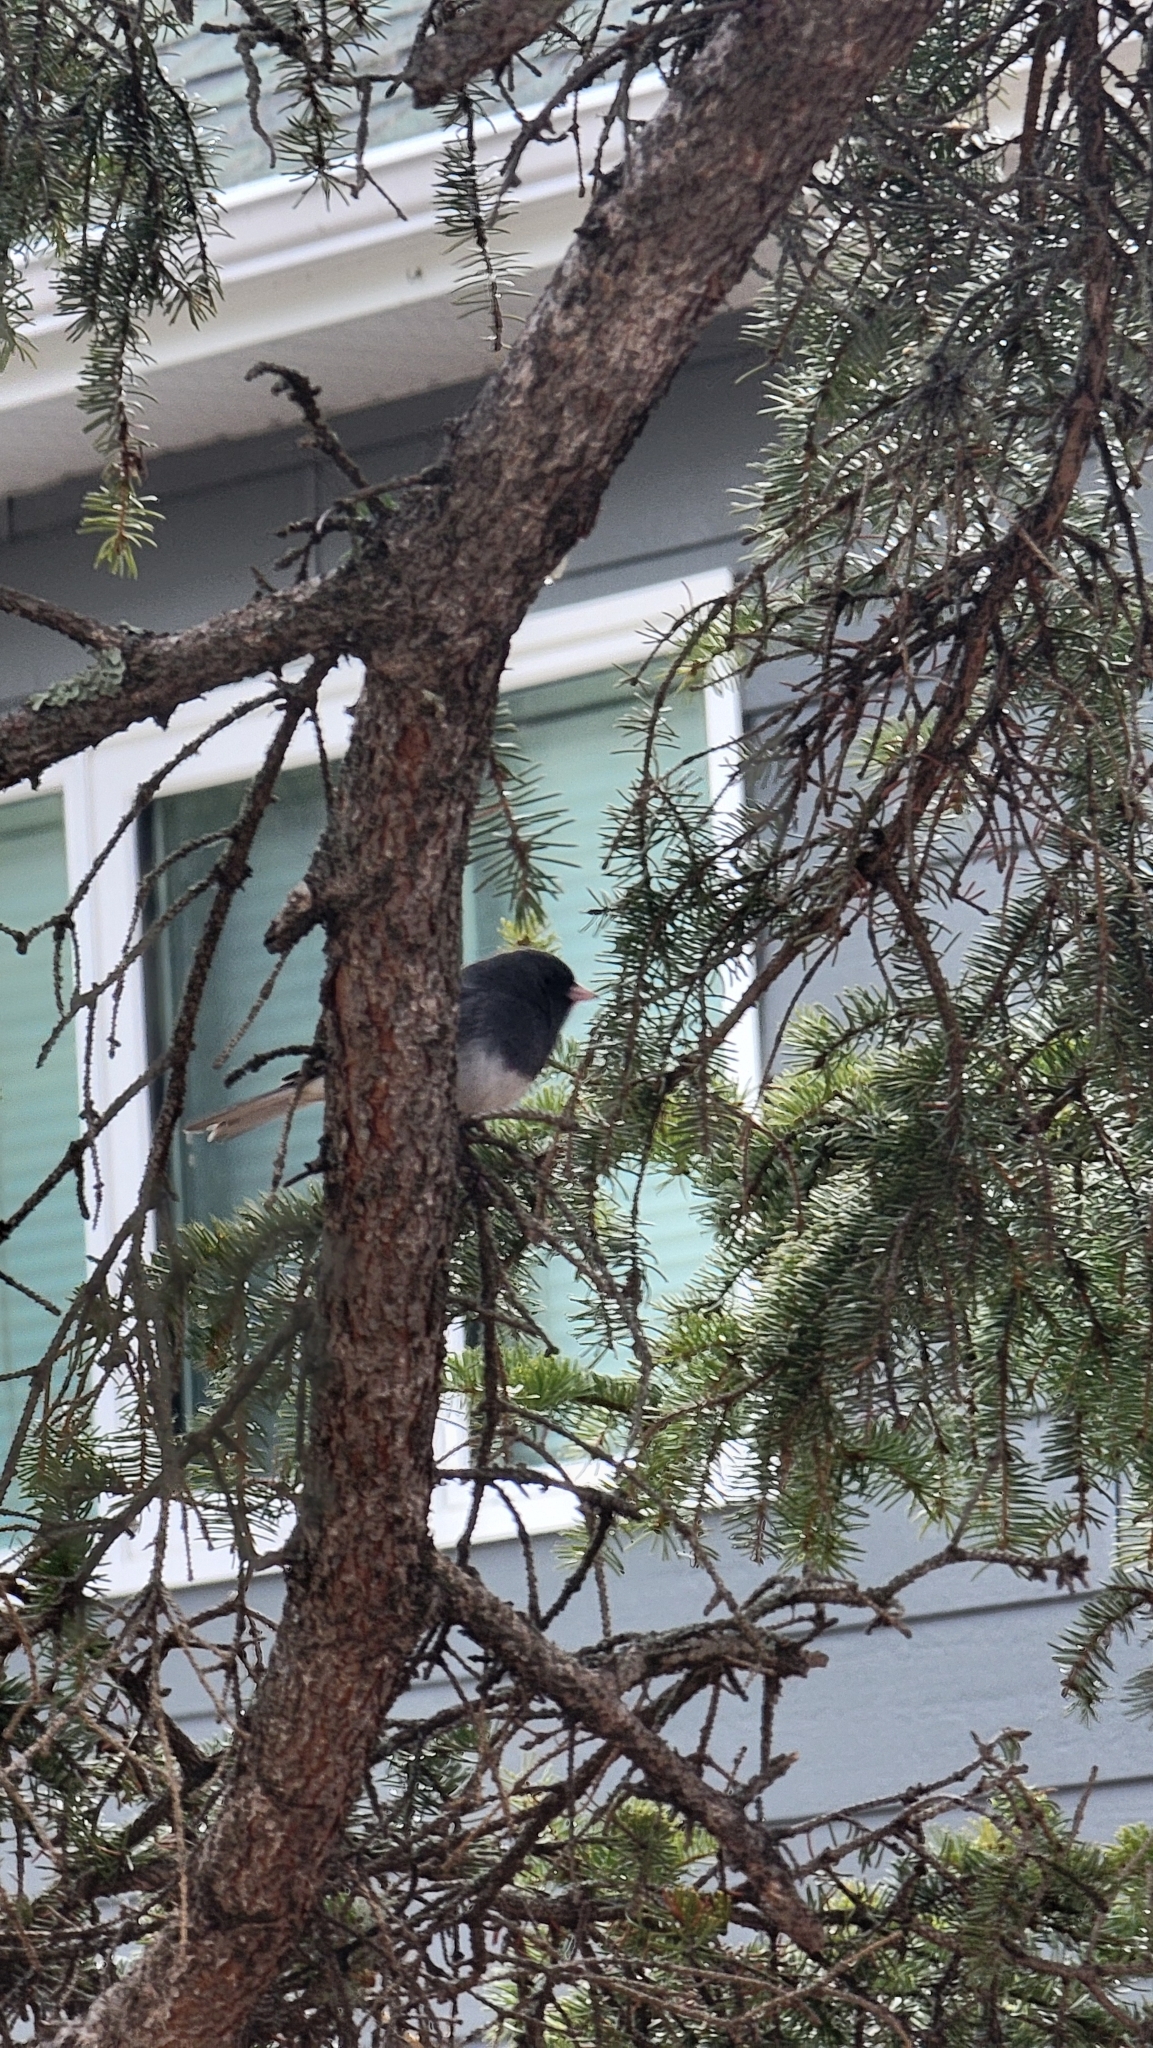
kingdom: Animalia
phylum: Chordata
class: Aves
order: Passeriformes
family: Passerellidae
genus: Junco
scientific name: Junco hyemalis
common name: Dark-eyed junco
